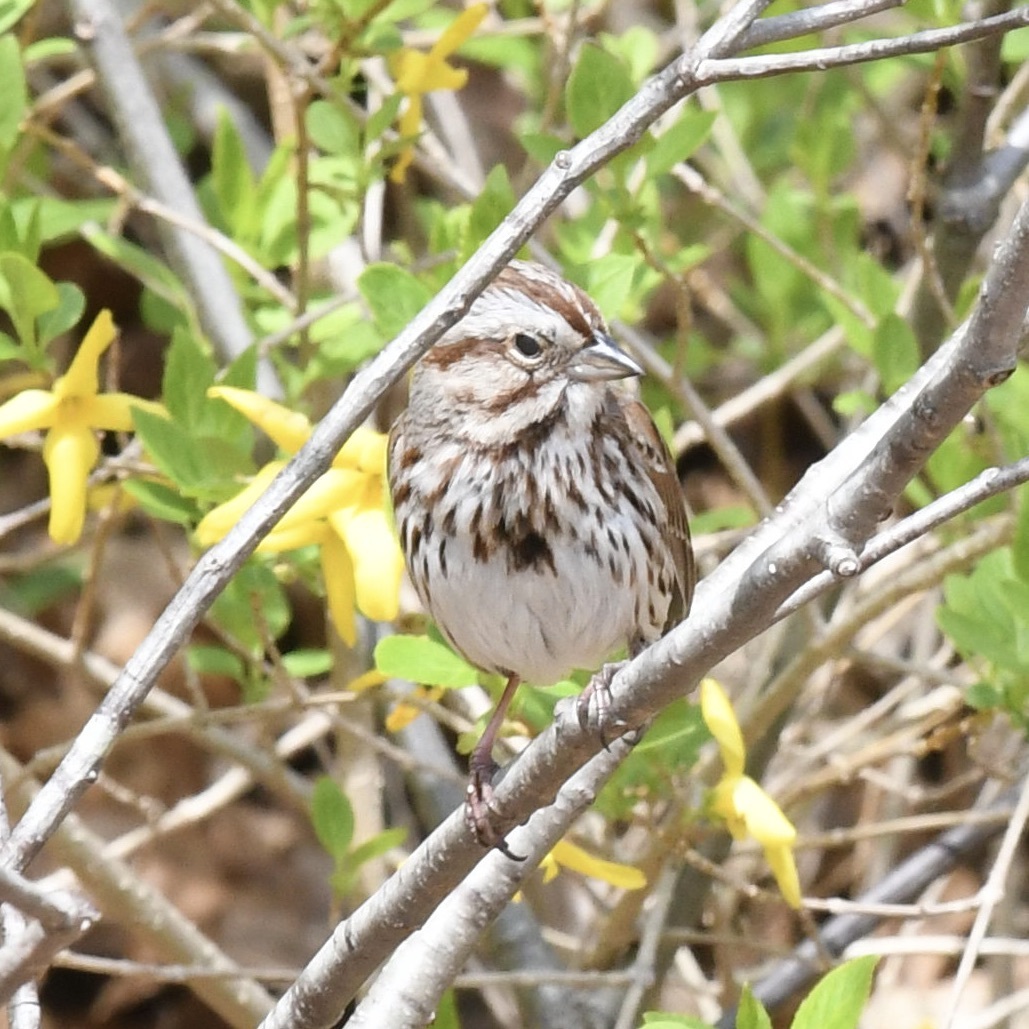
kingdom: Animalia
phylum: Chordata
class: Aves
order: Passeriformes
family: Passerellidae
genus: Melospiza
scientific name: Melospiza melodia
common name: Song sparrow
